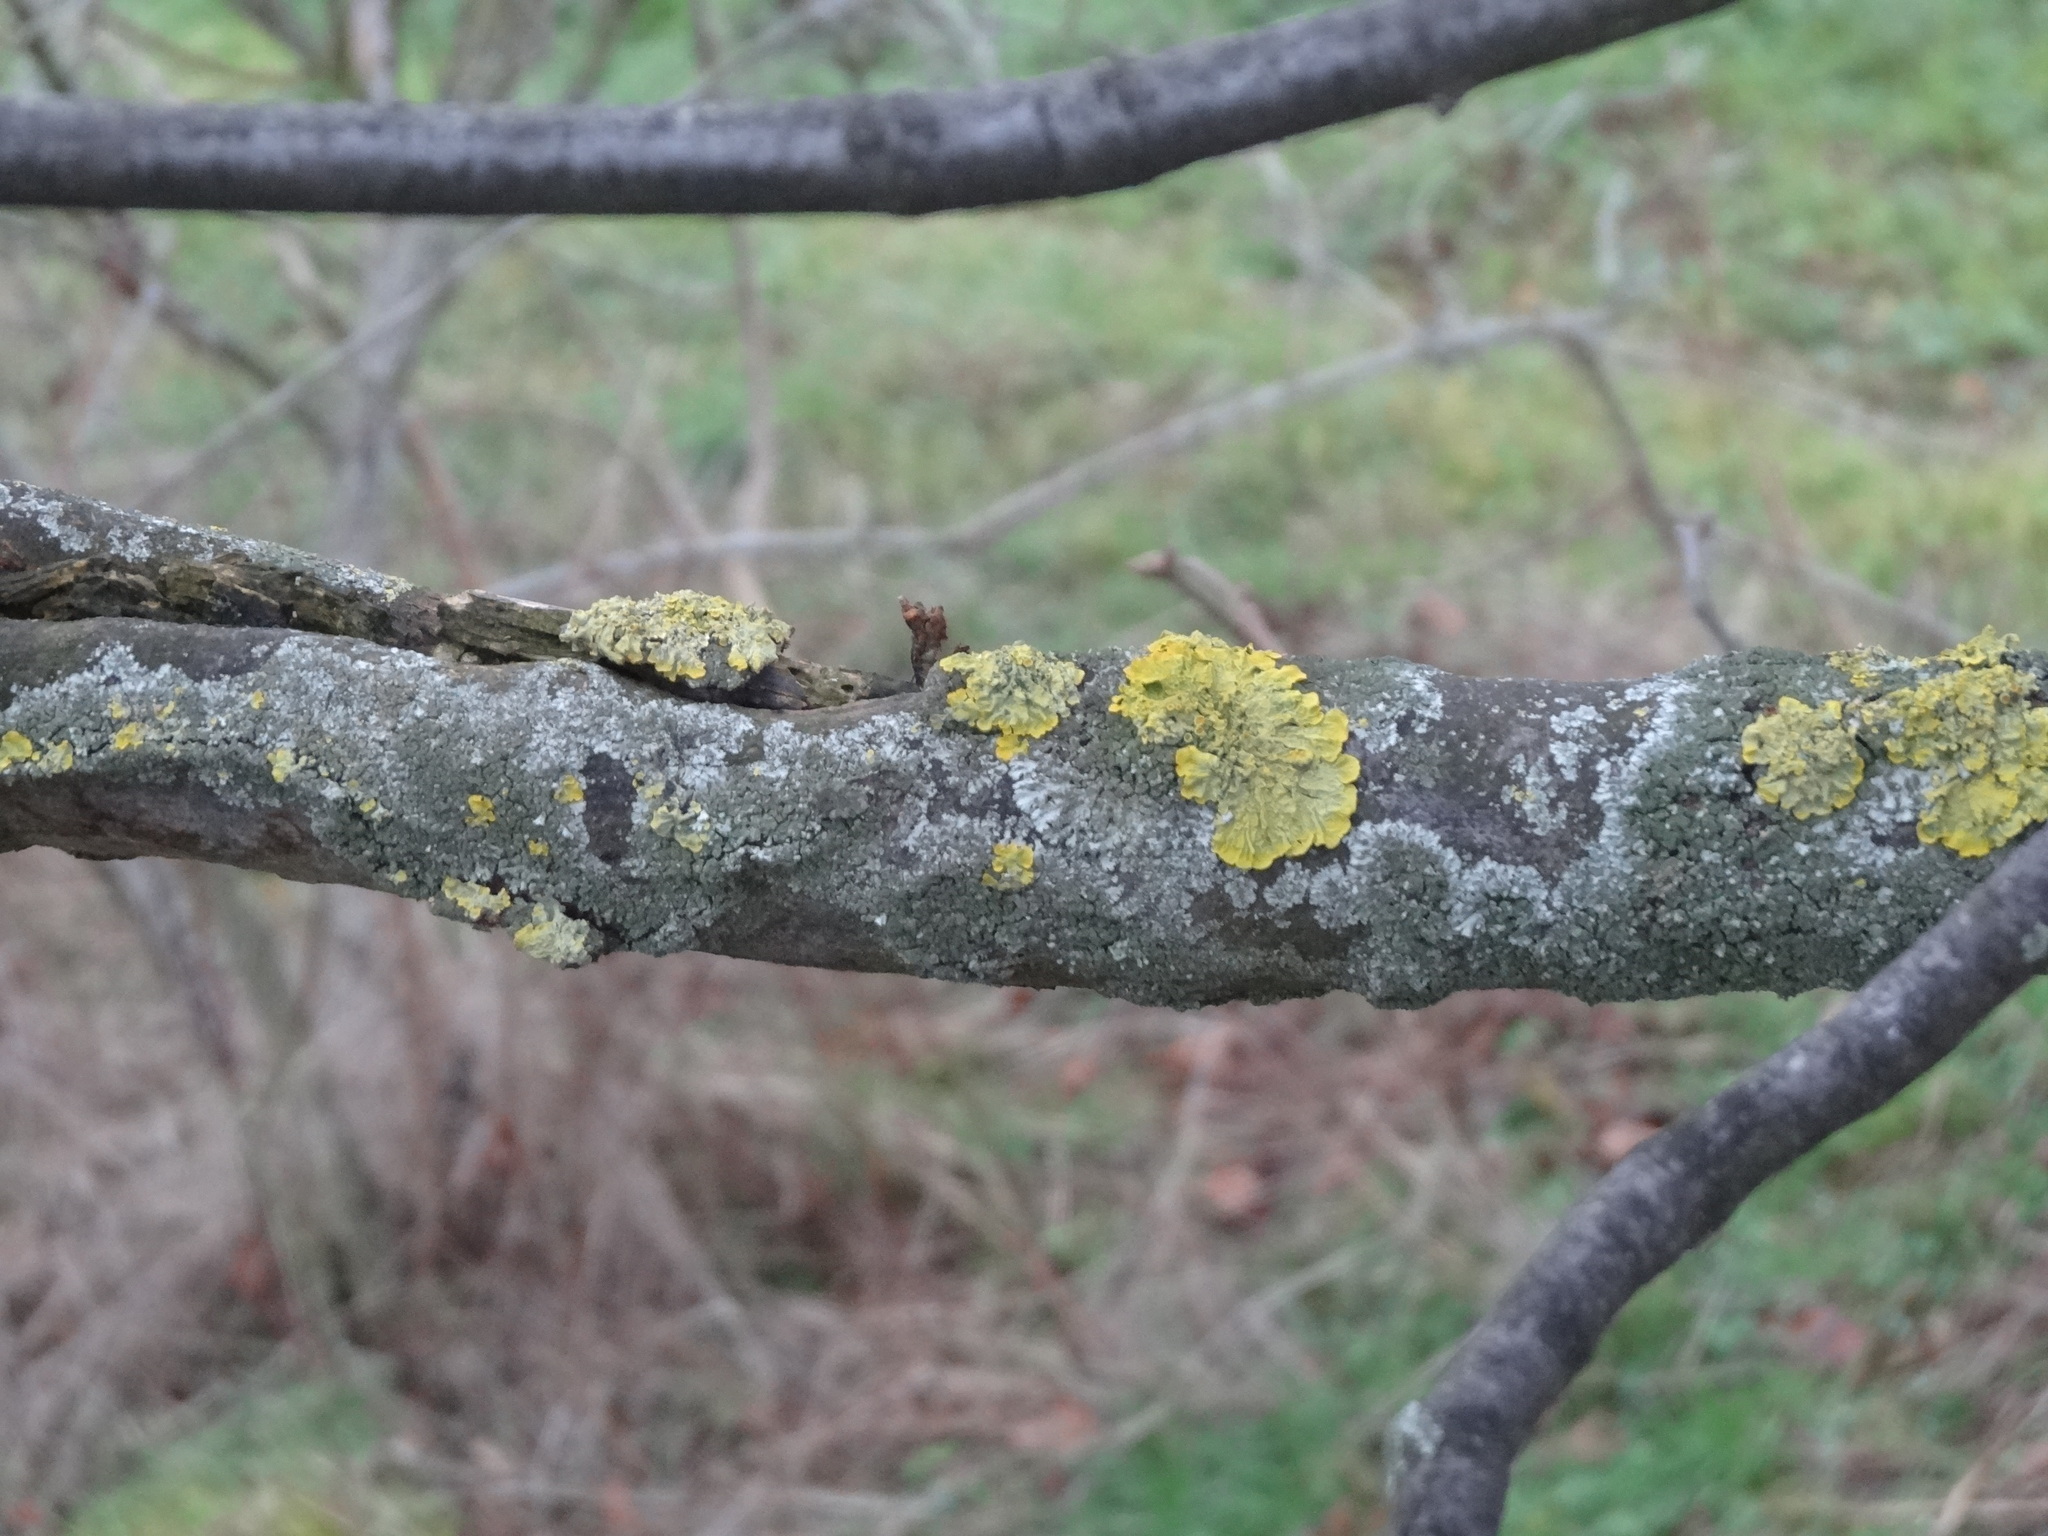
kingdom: Fungi
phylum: Ascomycota
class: Lecanoromycetes
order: Teloschistales
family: Teloschistaceae
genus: Xanthoria
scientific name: Xanthoria parietina
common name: Common orange lichen
